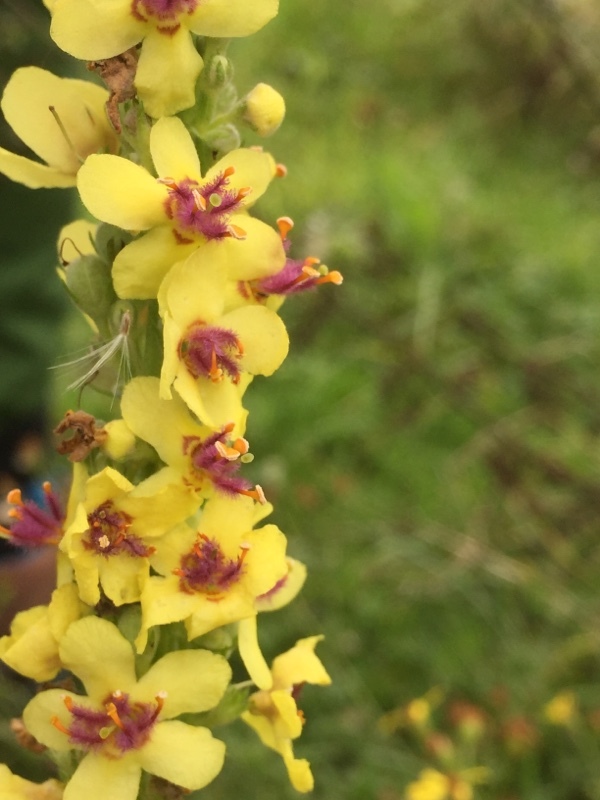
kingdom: Plantae
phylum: Tracheophyta
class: Magnoliopsida
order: Lamiales
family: Scrophulariaceae
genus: Verbascum
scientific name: Verbascum nigrum
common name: Dark mullein
